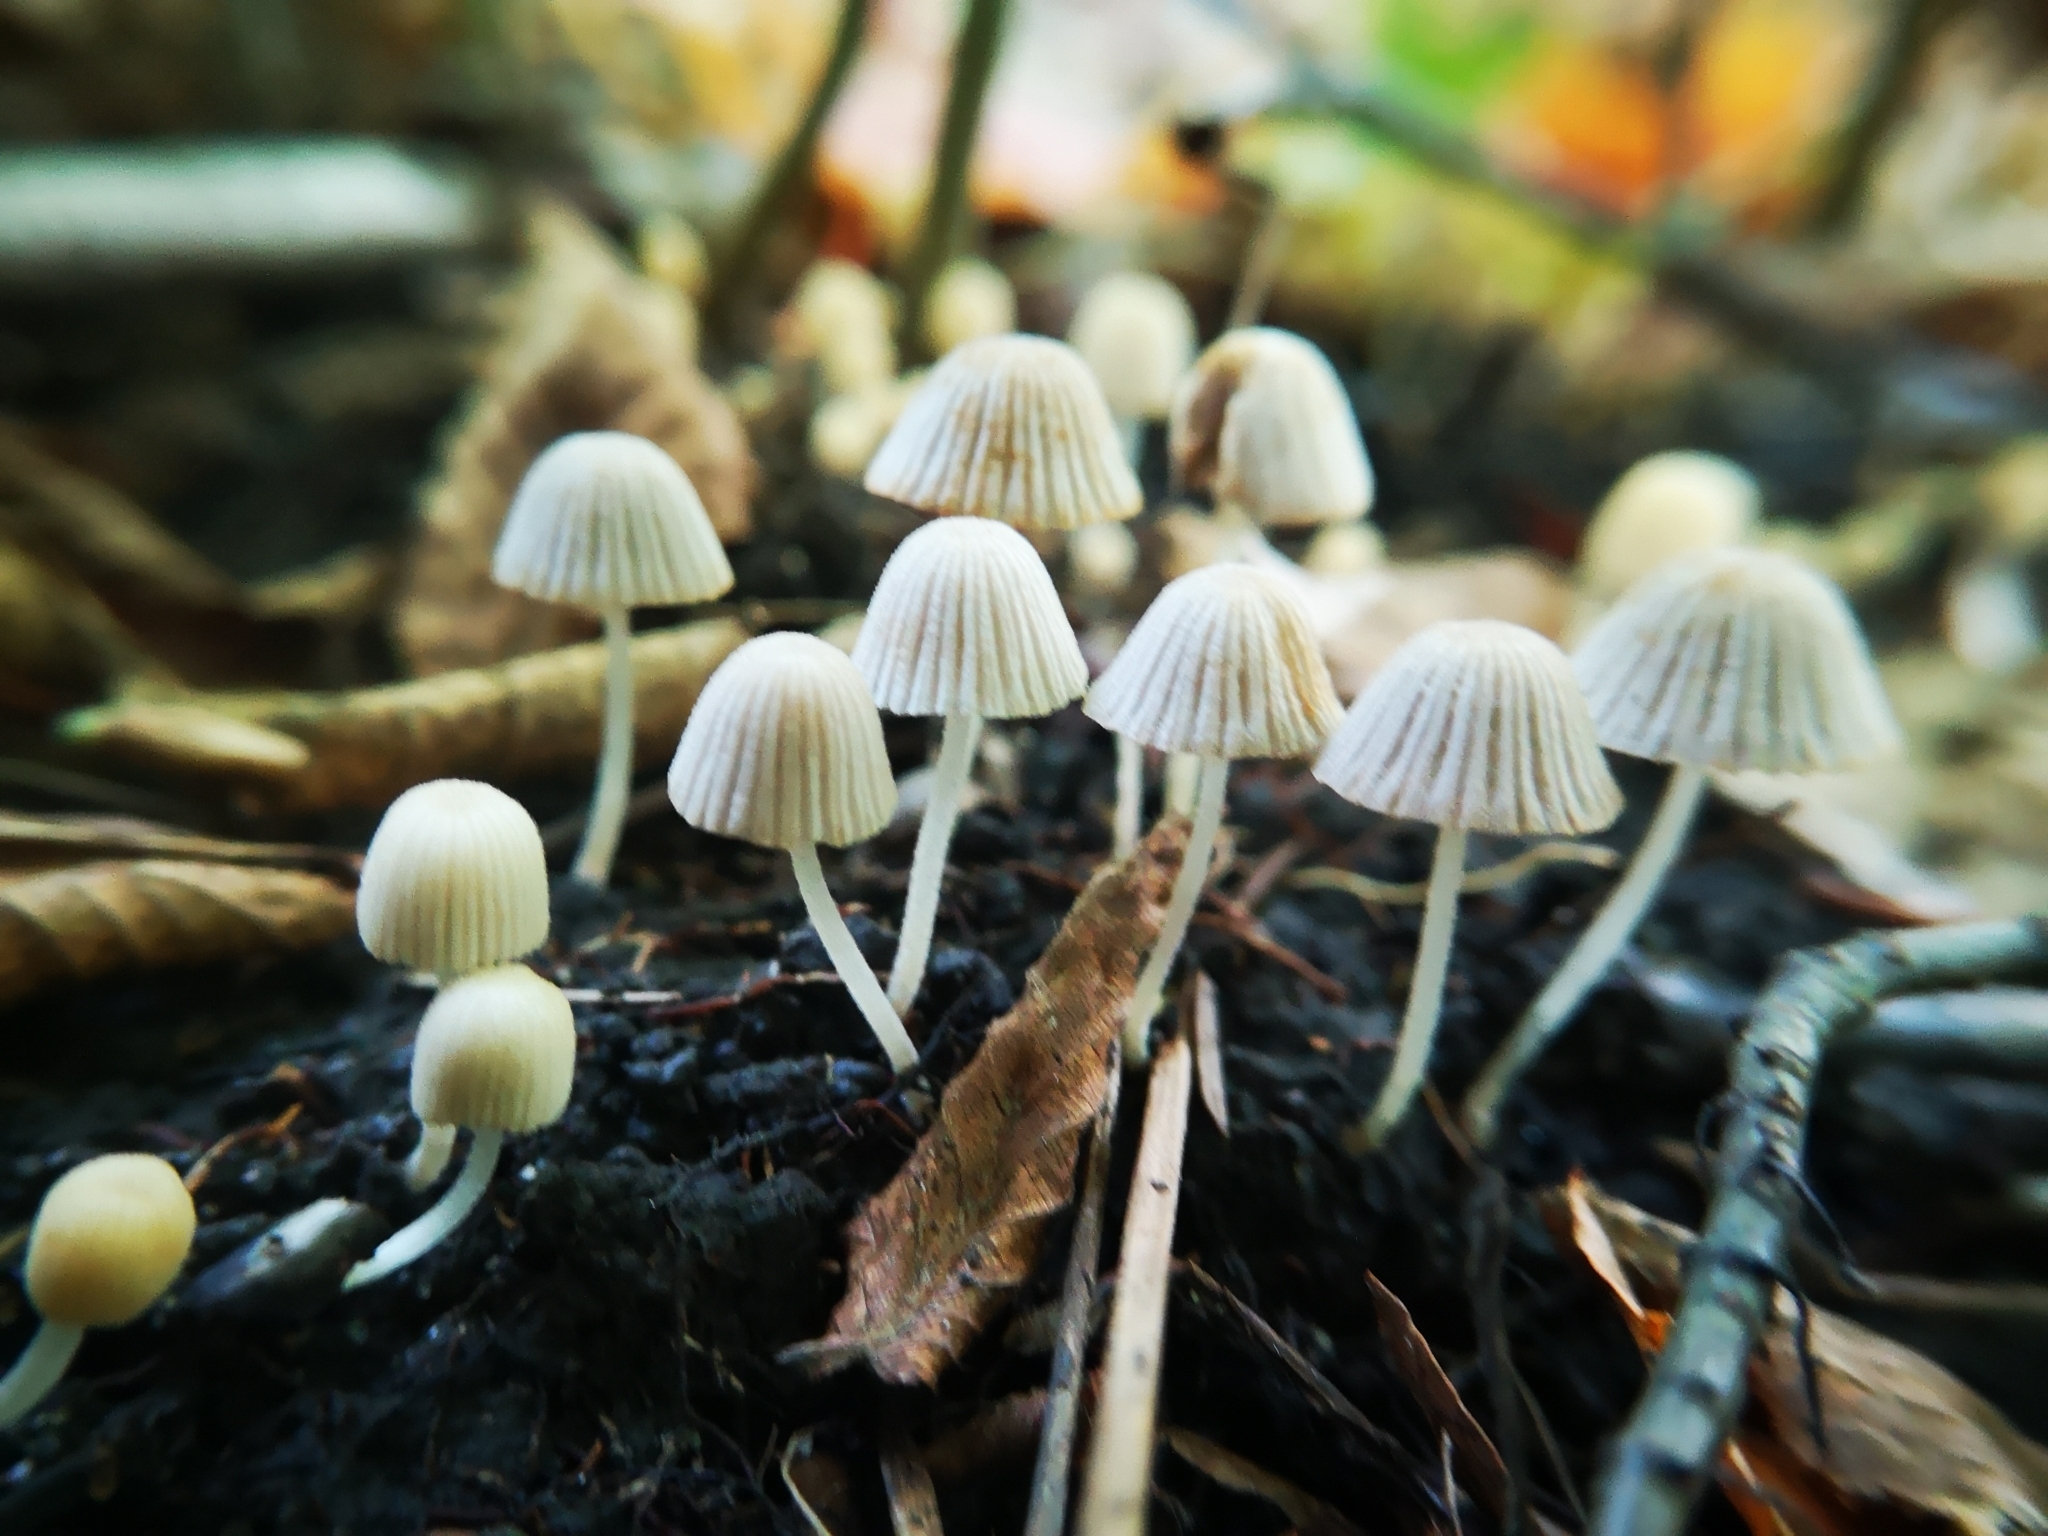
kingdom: Fungi
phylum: Basidiomycota
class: Agaricomycetes
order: Agaricales
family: Psathyrellaceae
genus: Coprinellus
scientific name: Coprinellus disseminatus
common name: Fairies' bonnets
